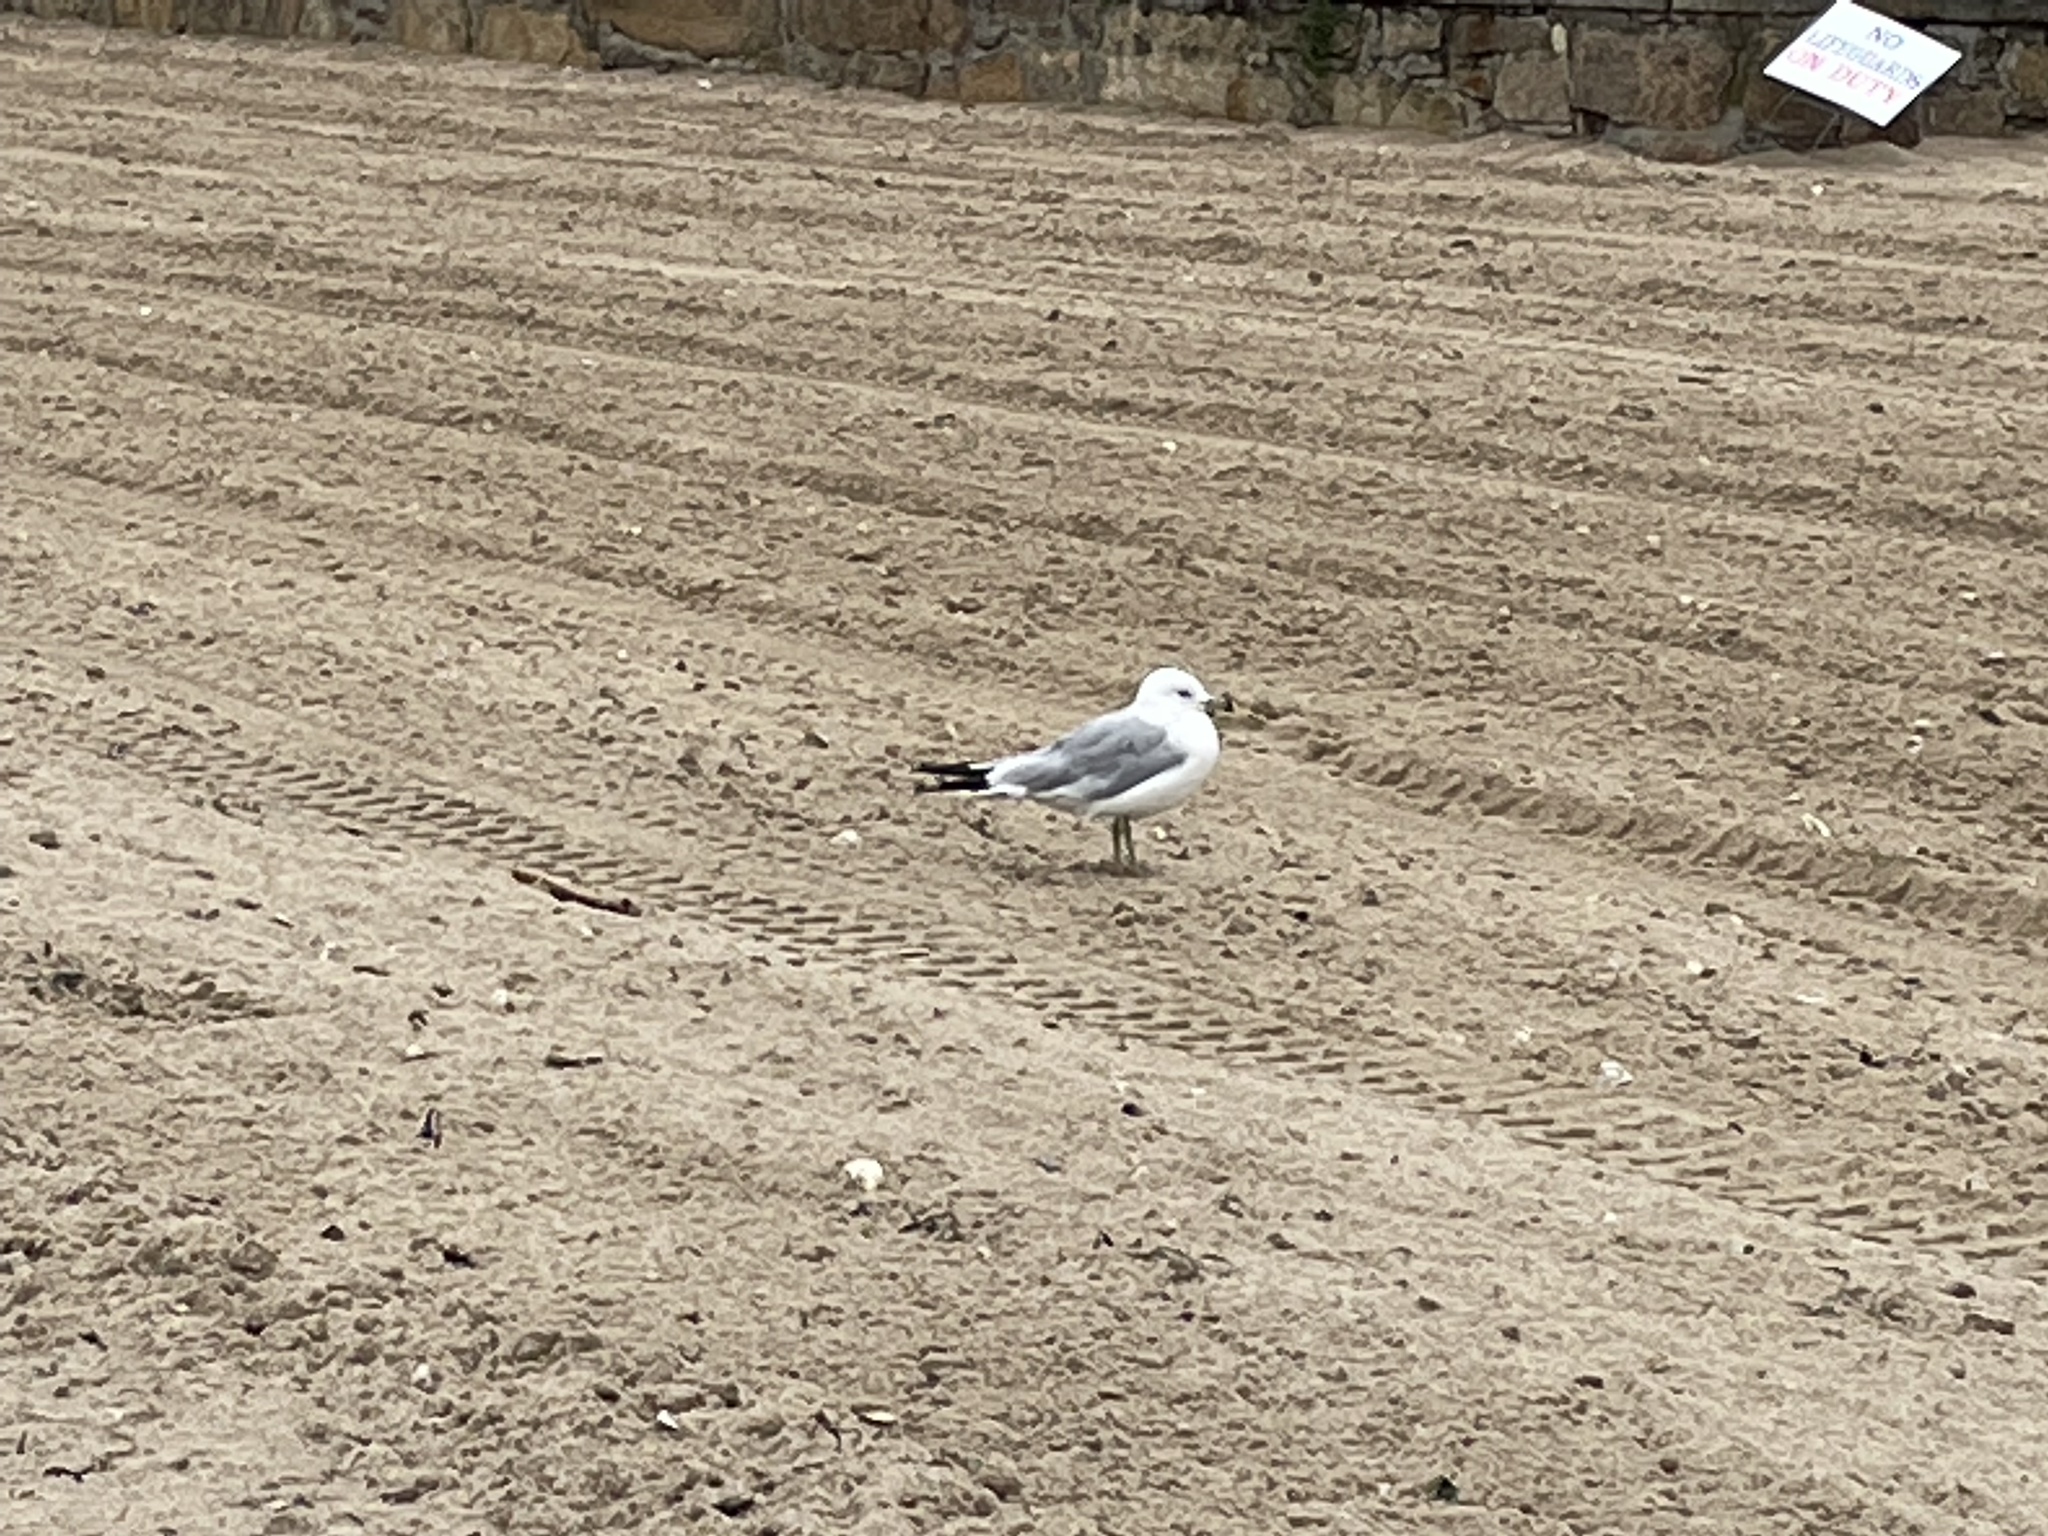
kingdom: Animalia
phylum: Chordata
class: Aves
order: Charadriiformes
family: Laridae
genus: Larus
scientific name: Larus delawarensis
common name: Ring-billed gull
